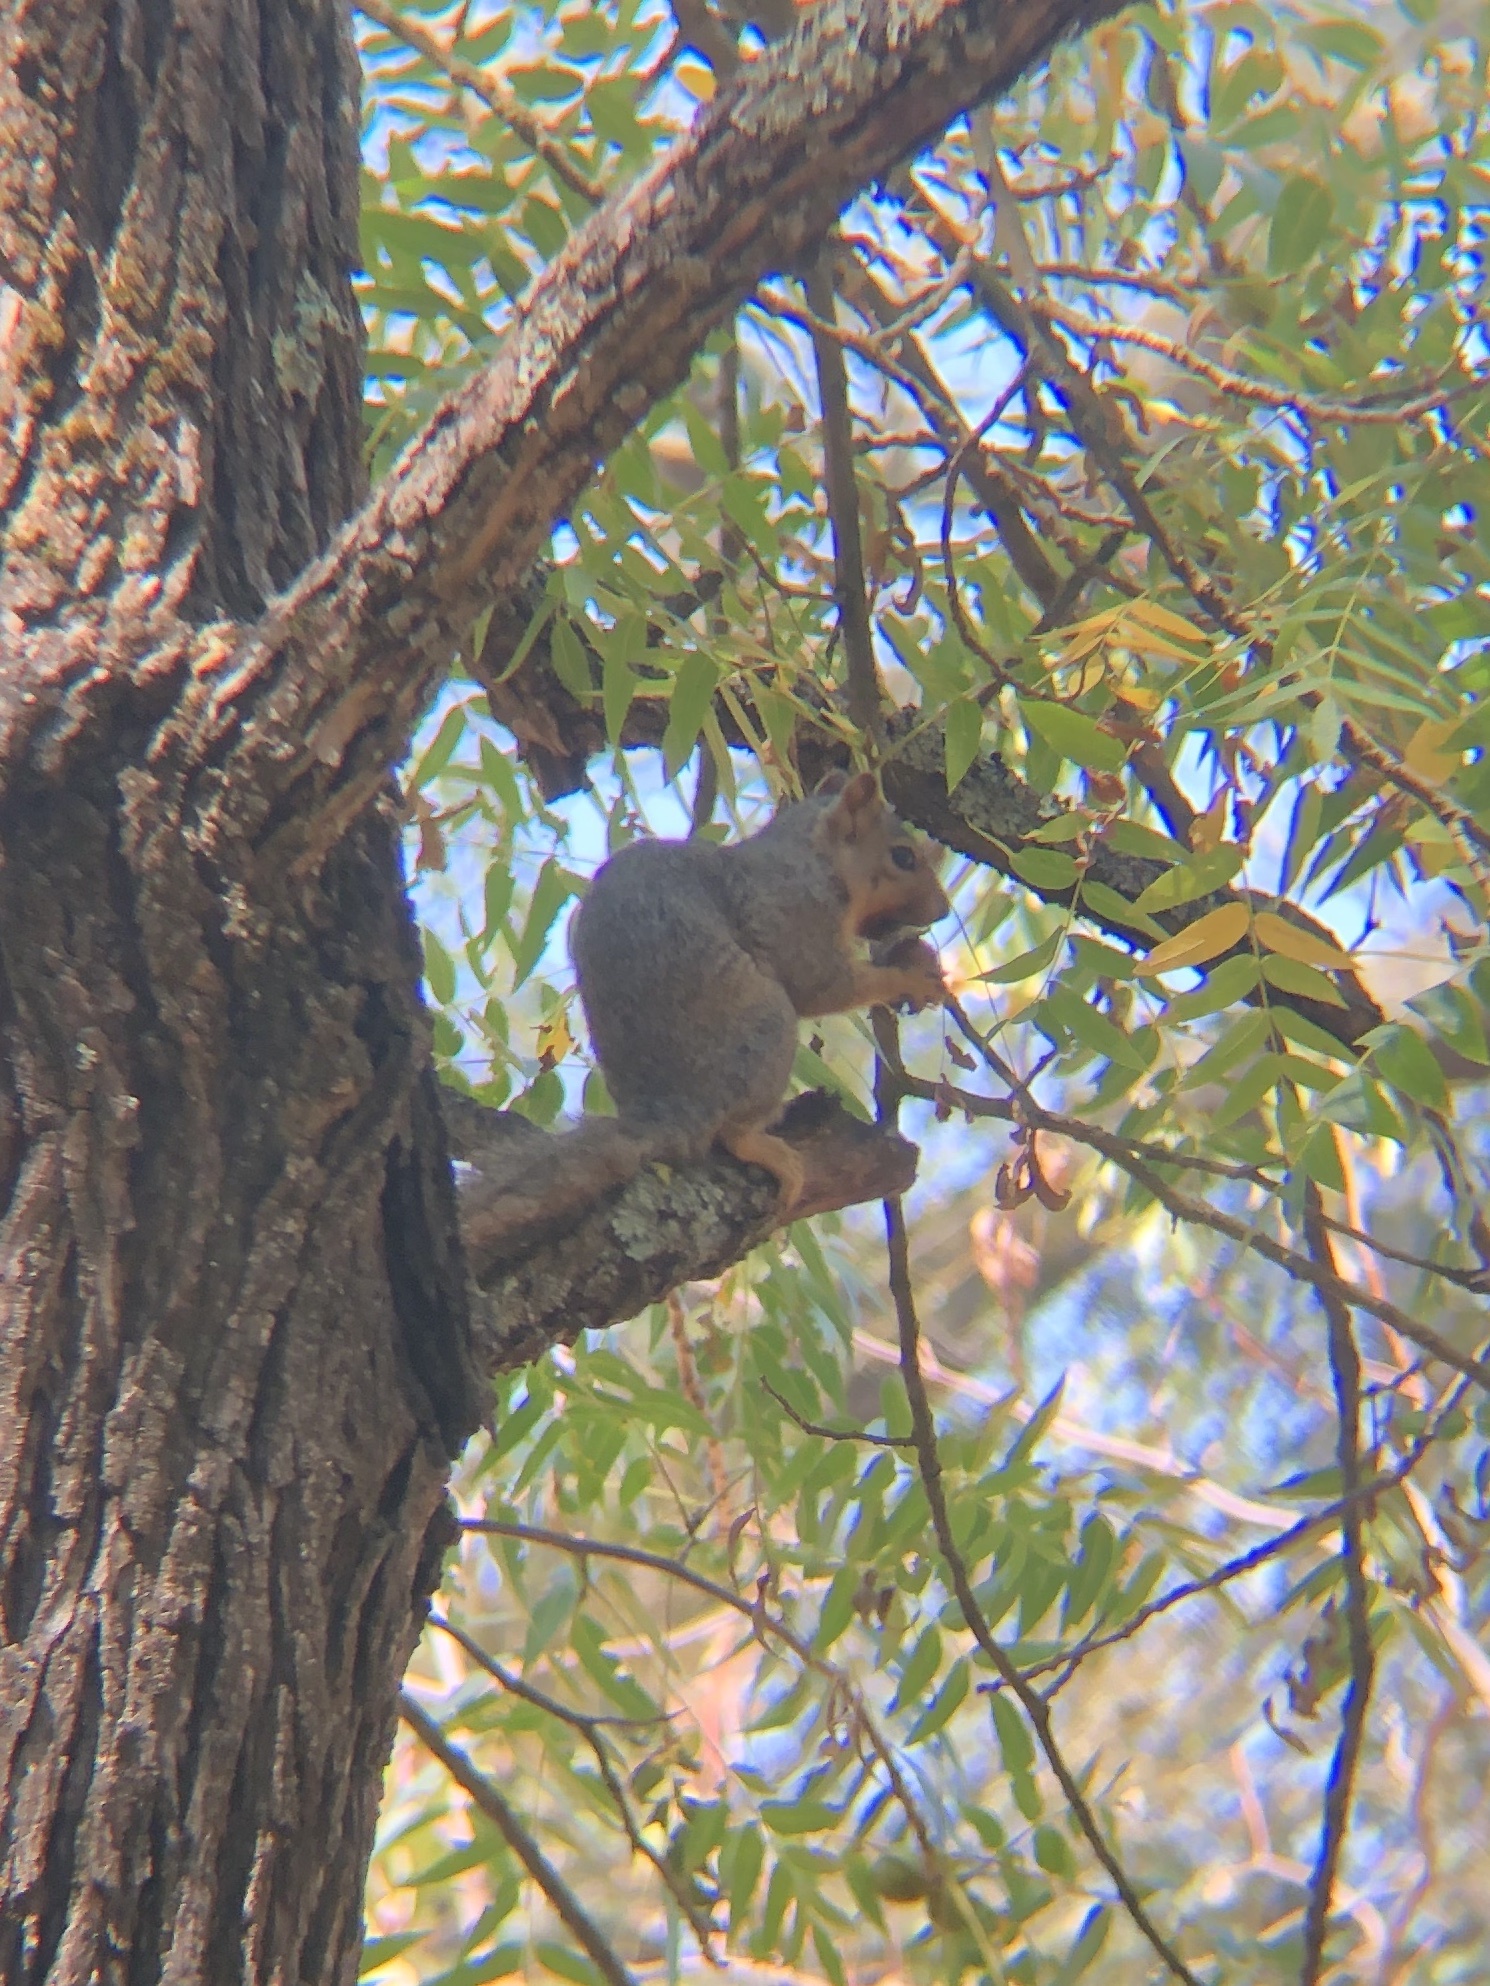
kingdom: Animalia
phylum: Chordata
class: Mammalia
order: Rodentia
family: Sciuridae
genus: Sciurus
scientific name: Sciurus niger
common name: Fox squirrel
